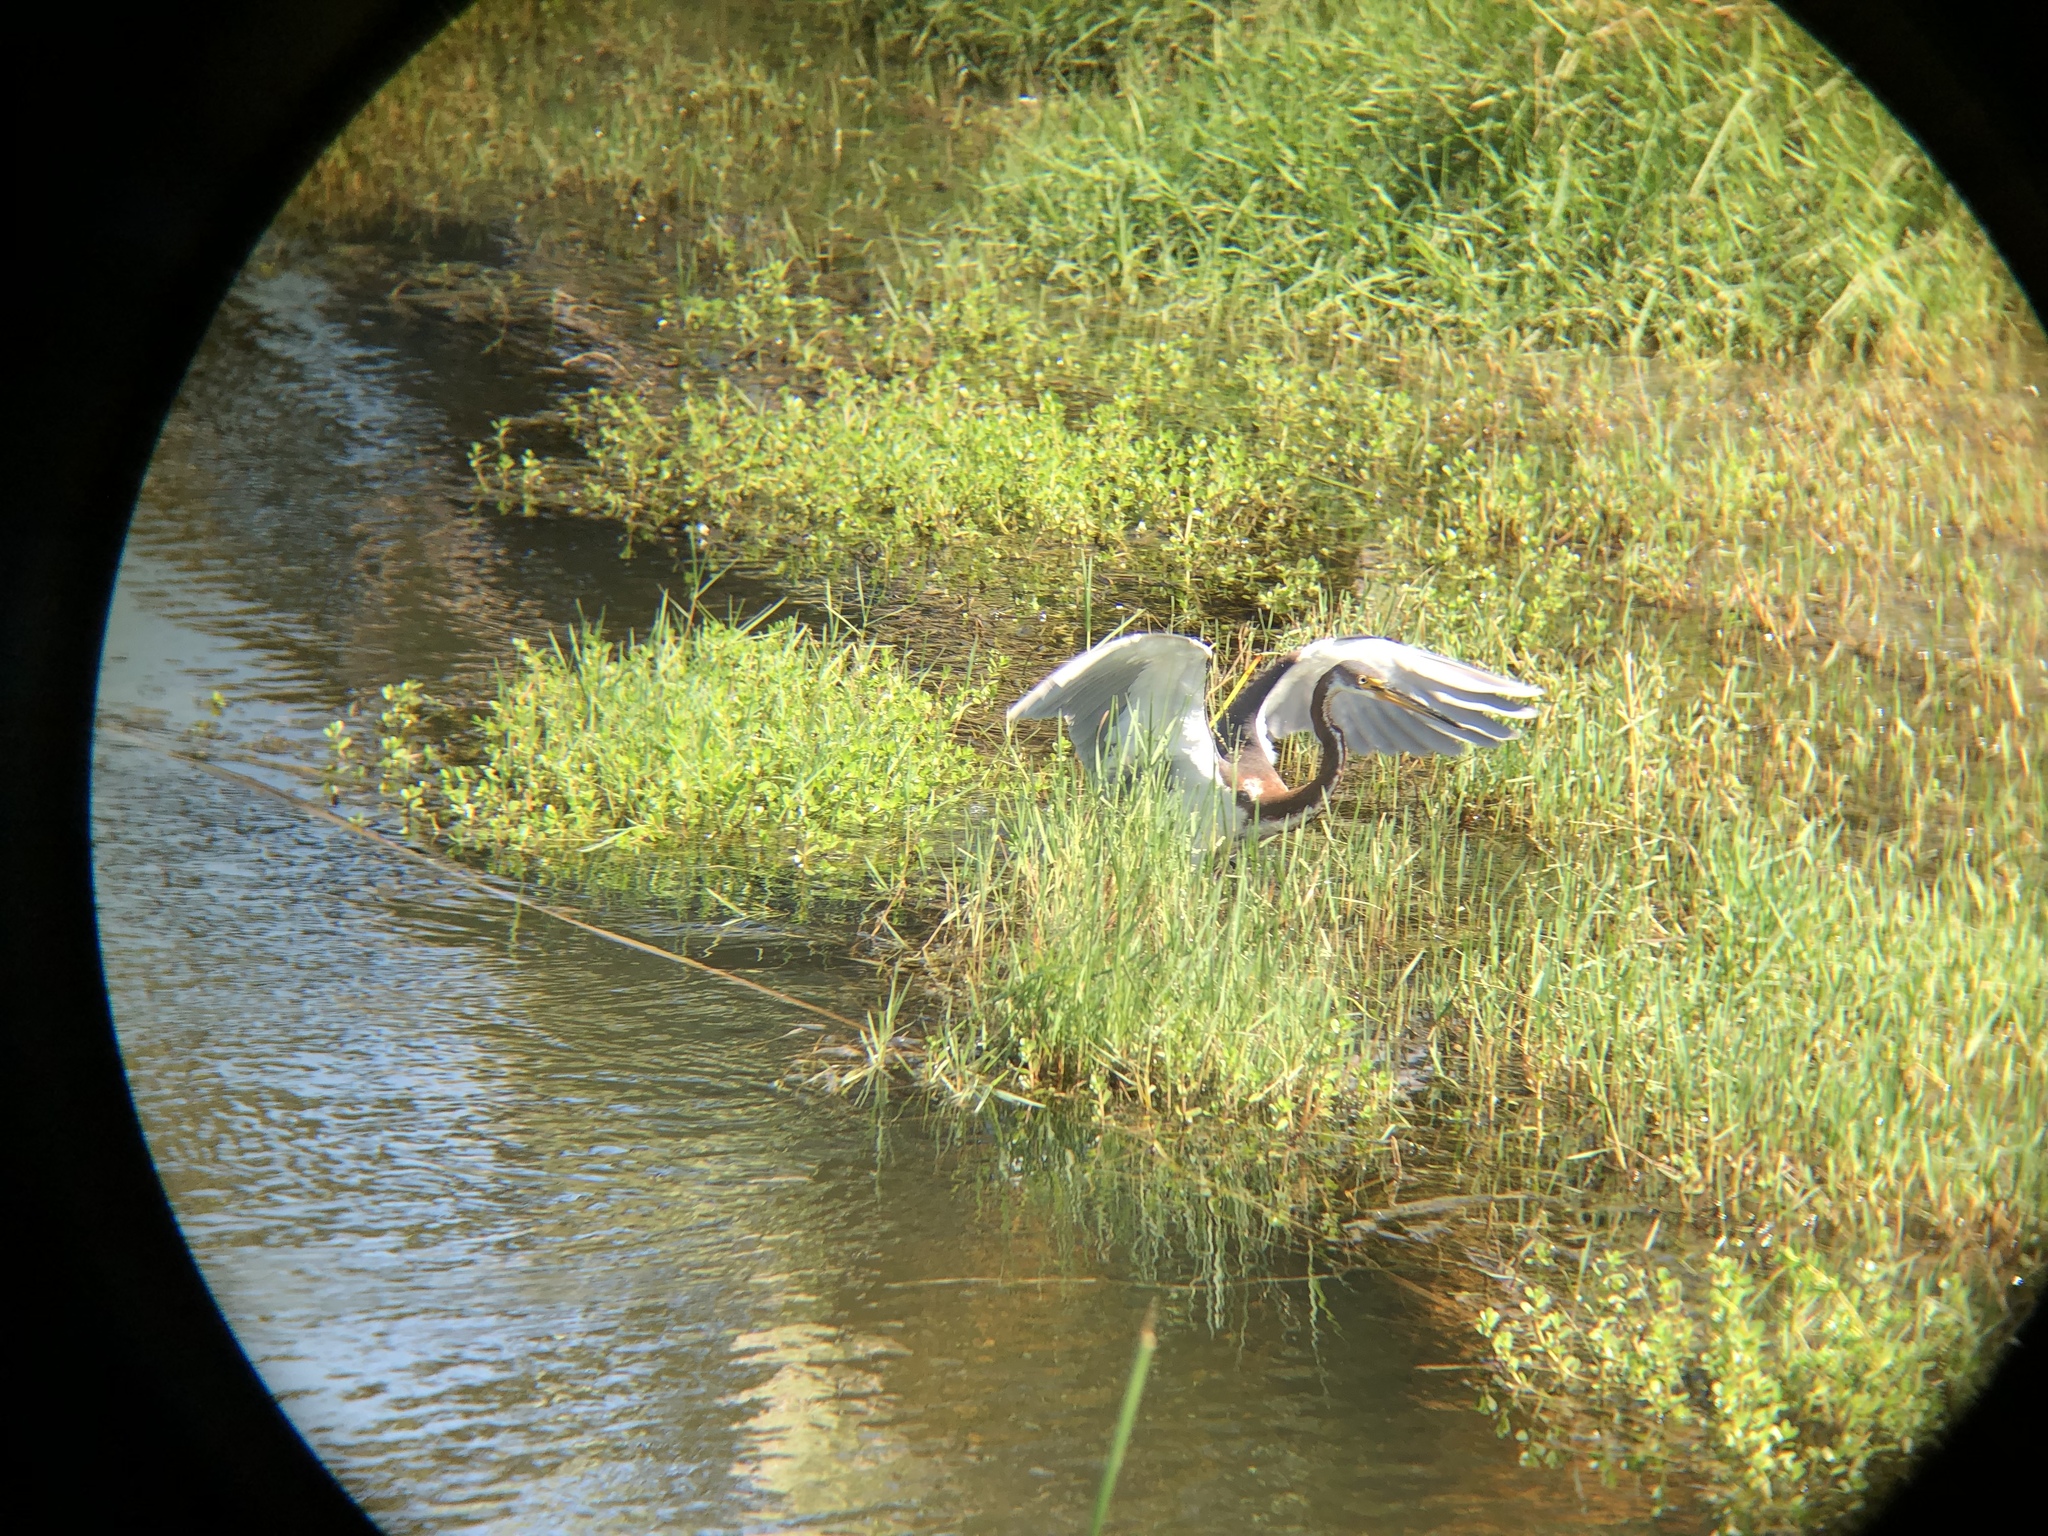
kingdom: Animalia
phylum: Chordata
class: Aves
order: Pelecaniformes
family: Ardeidae
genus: Egretta
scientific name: Egretta tricolor
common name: Tricolored heron
